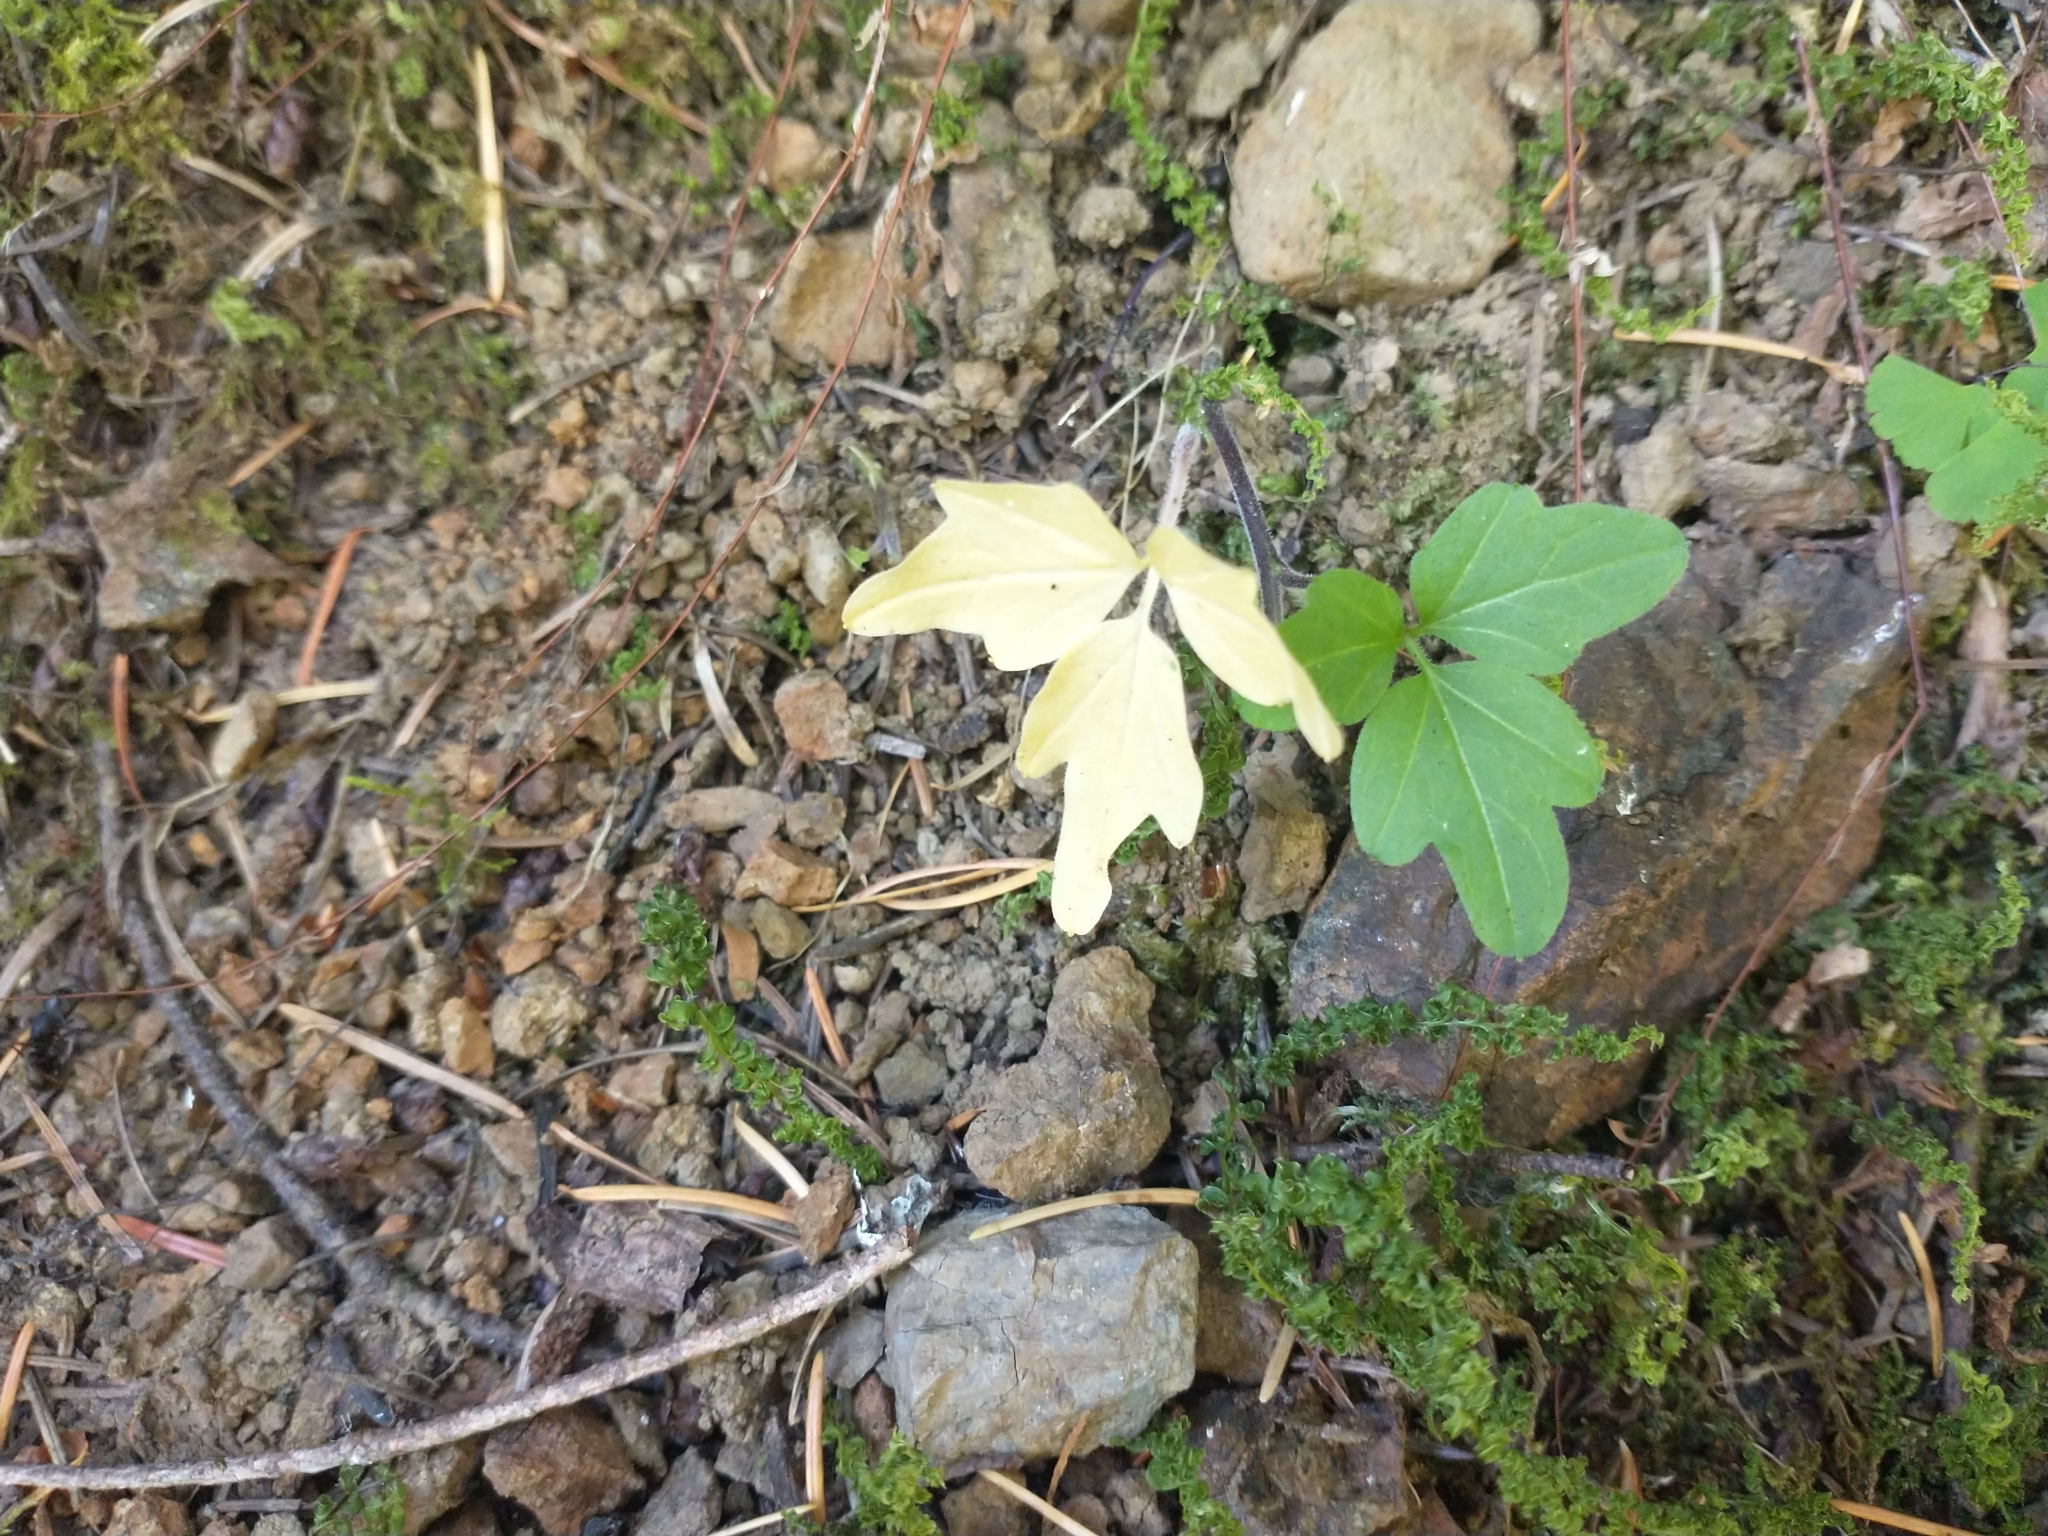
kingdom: Plantae
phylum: Tracheophyta
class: Magnoliopsida
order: Brassicales
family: Brassicaceae
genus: Cardamine
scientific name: Cardamine angulata
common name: Angled bittercress
